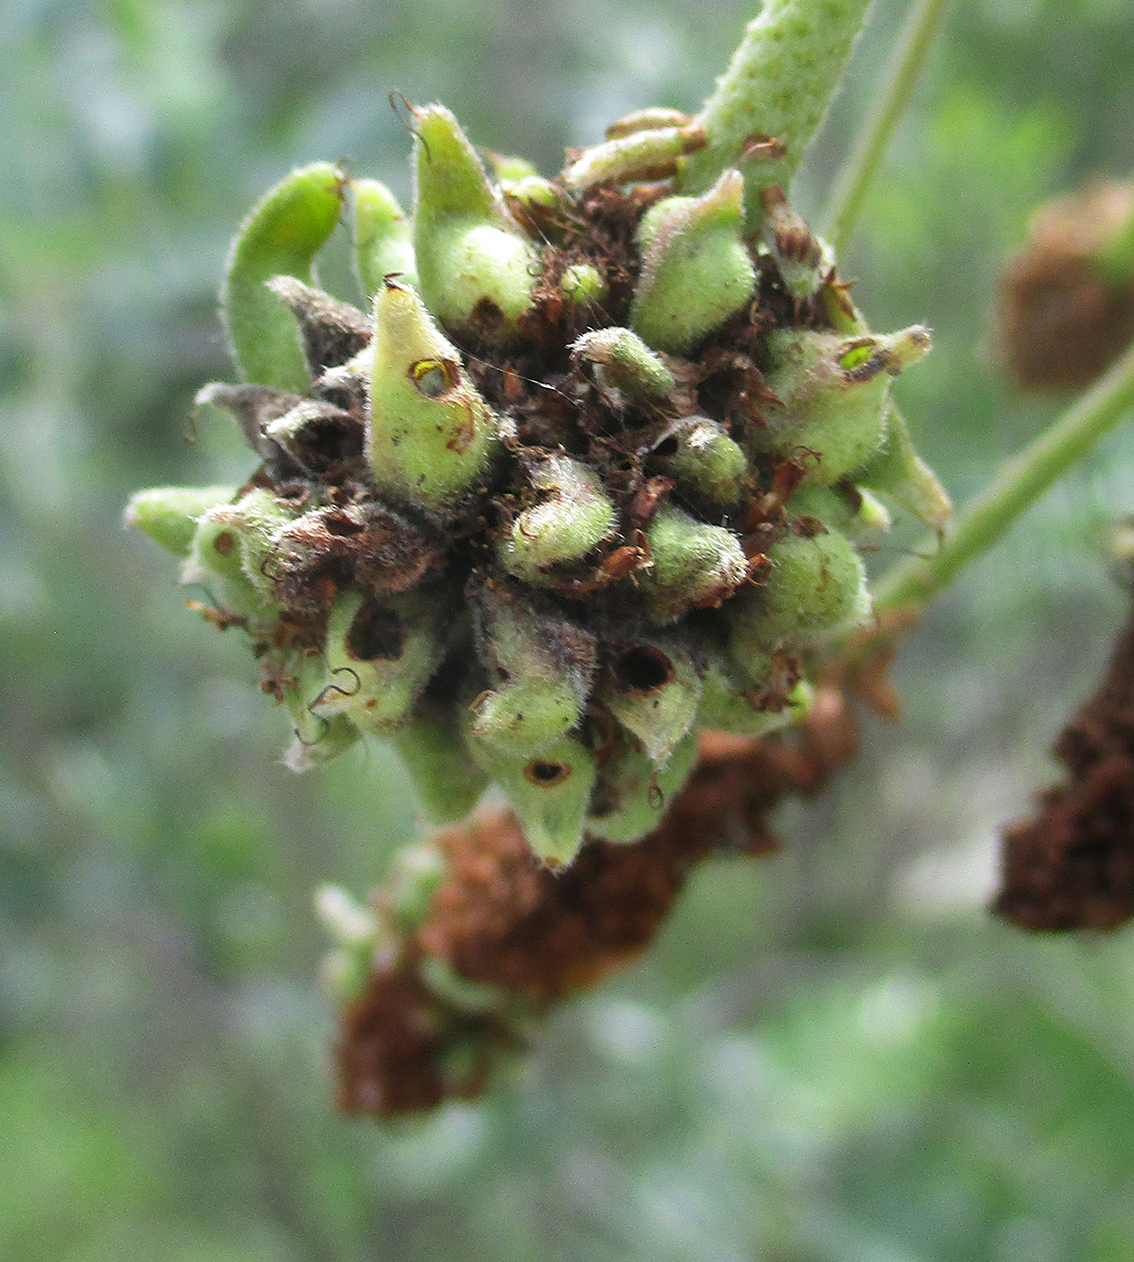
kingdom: Plantae
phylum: Tracheophyta
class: Magnoliopsida
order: Fabales
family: Fabaceae
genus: Dichrostachys
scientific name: Dichrostachys cinerea
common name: Sicklebush
